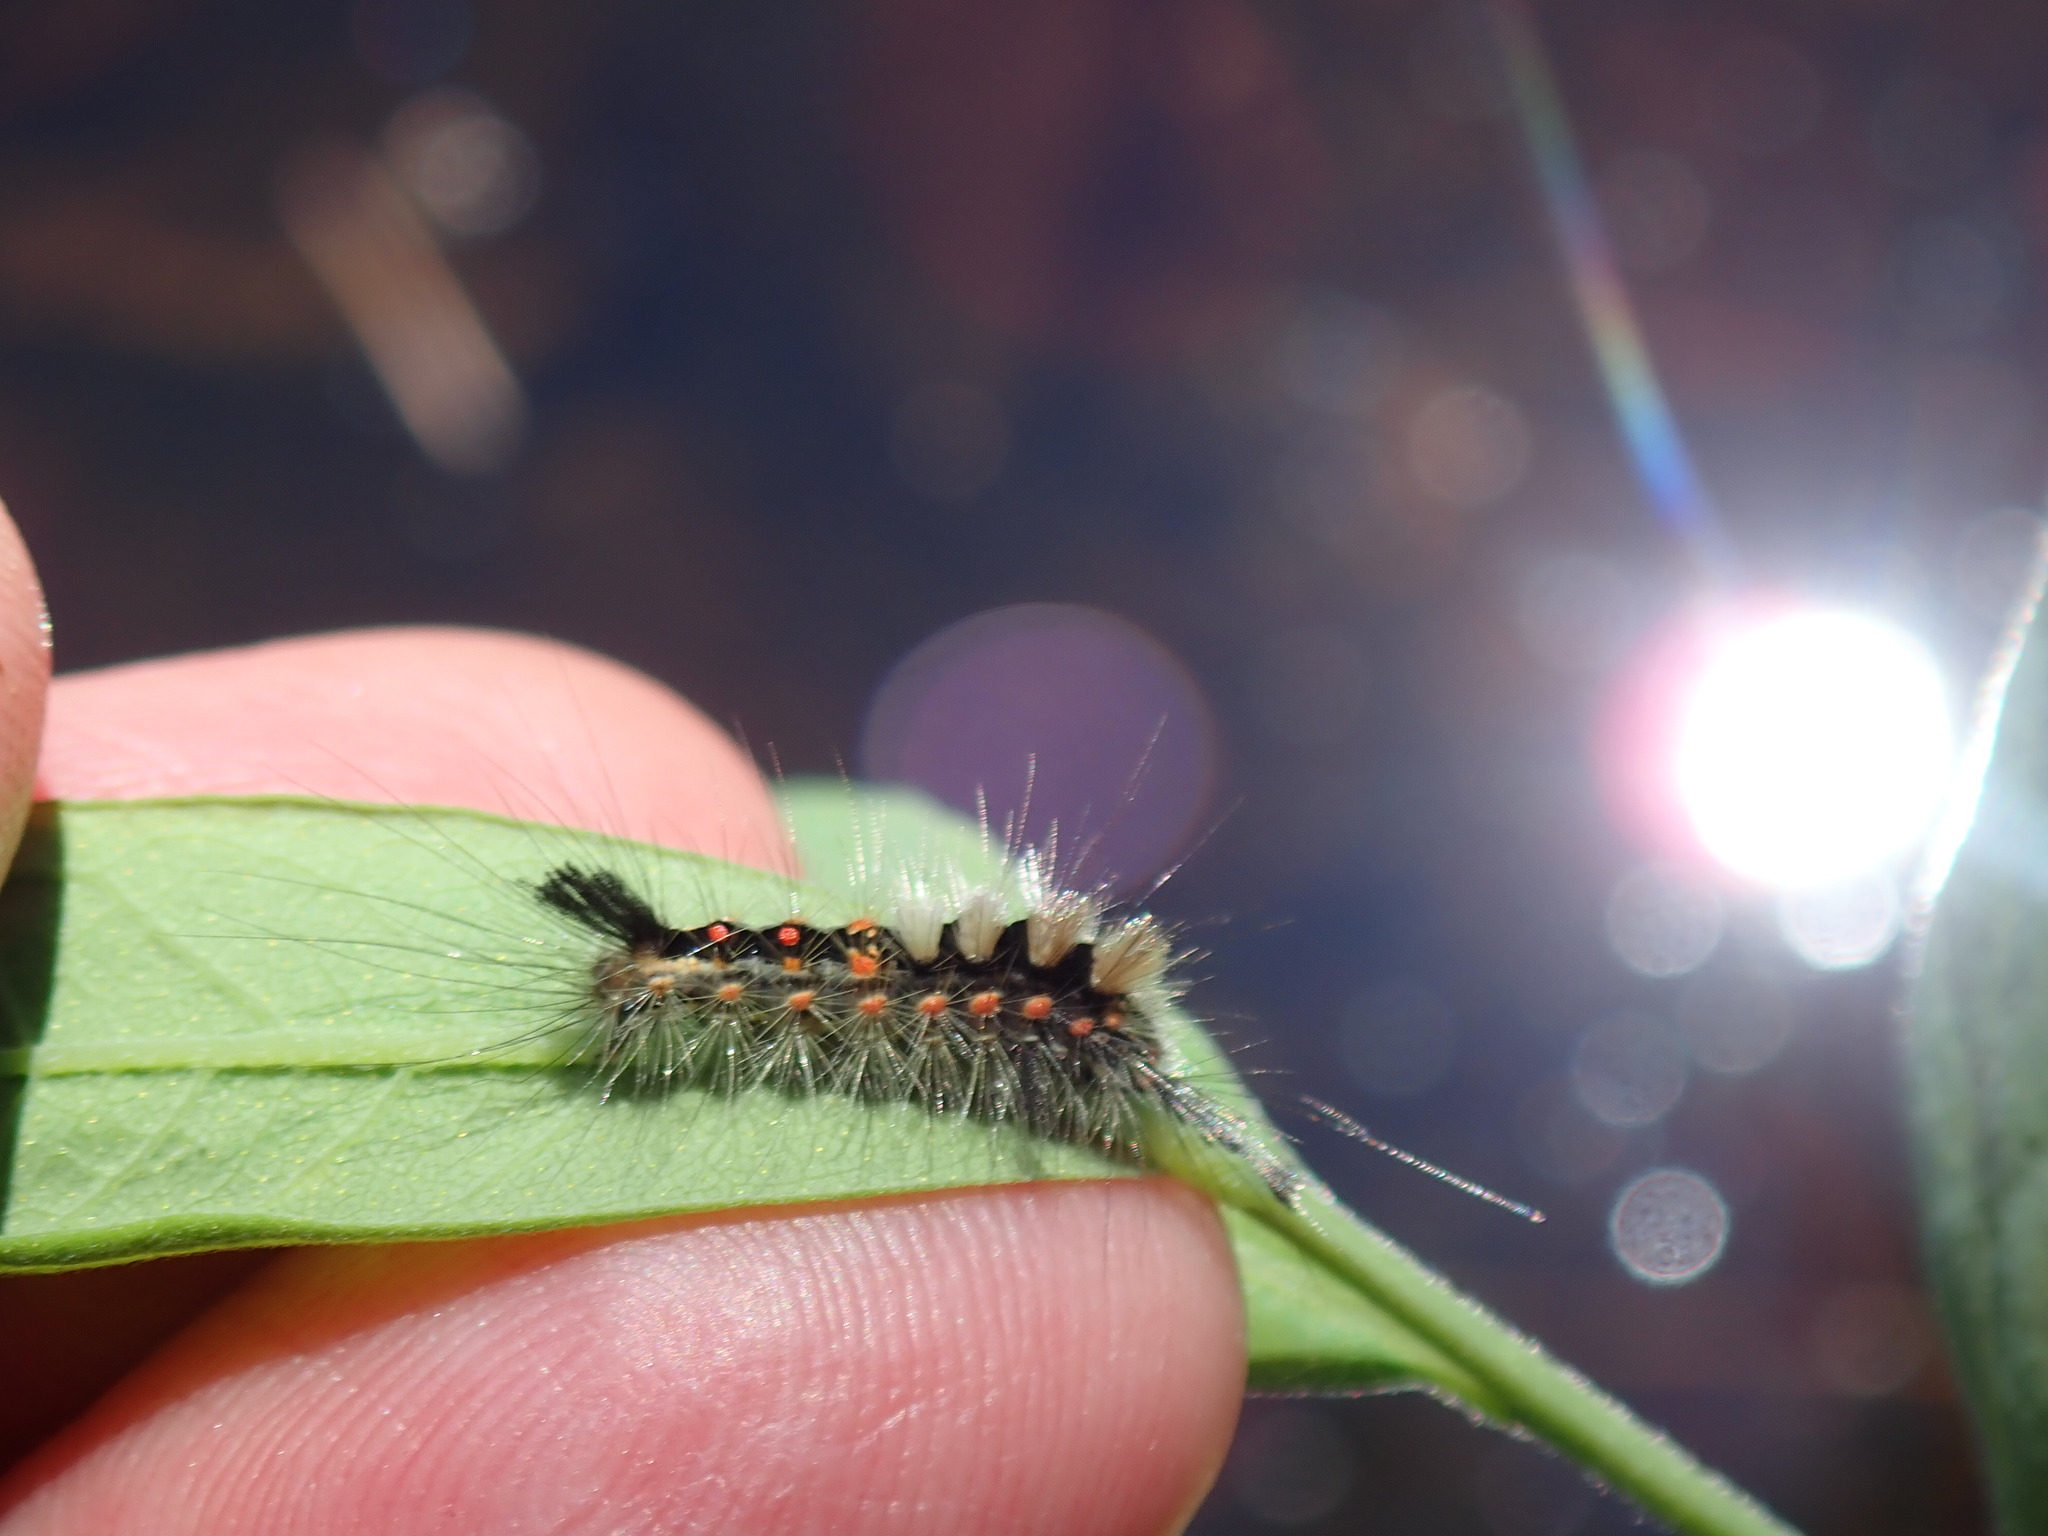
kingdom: Animalia
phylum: Arthropoda
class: Insecta
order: Lepidoptera
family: Erebidae
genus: Orgyia
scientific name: Orgyia antiqua
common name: Vapourer
